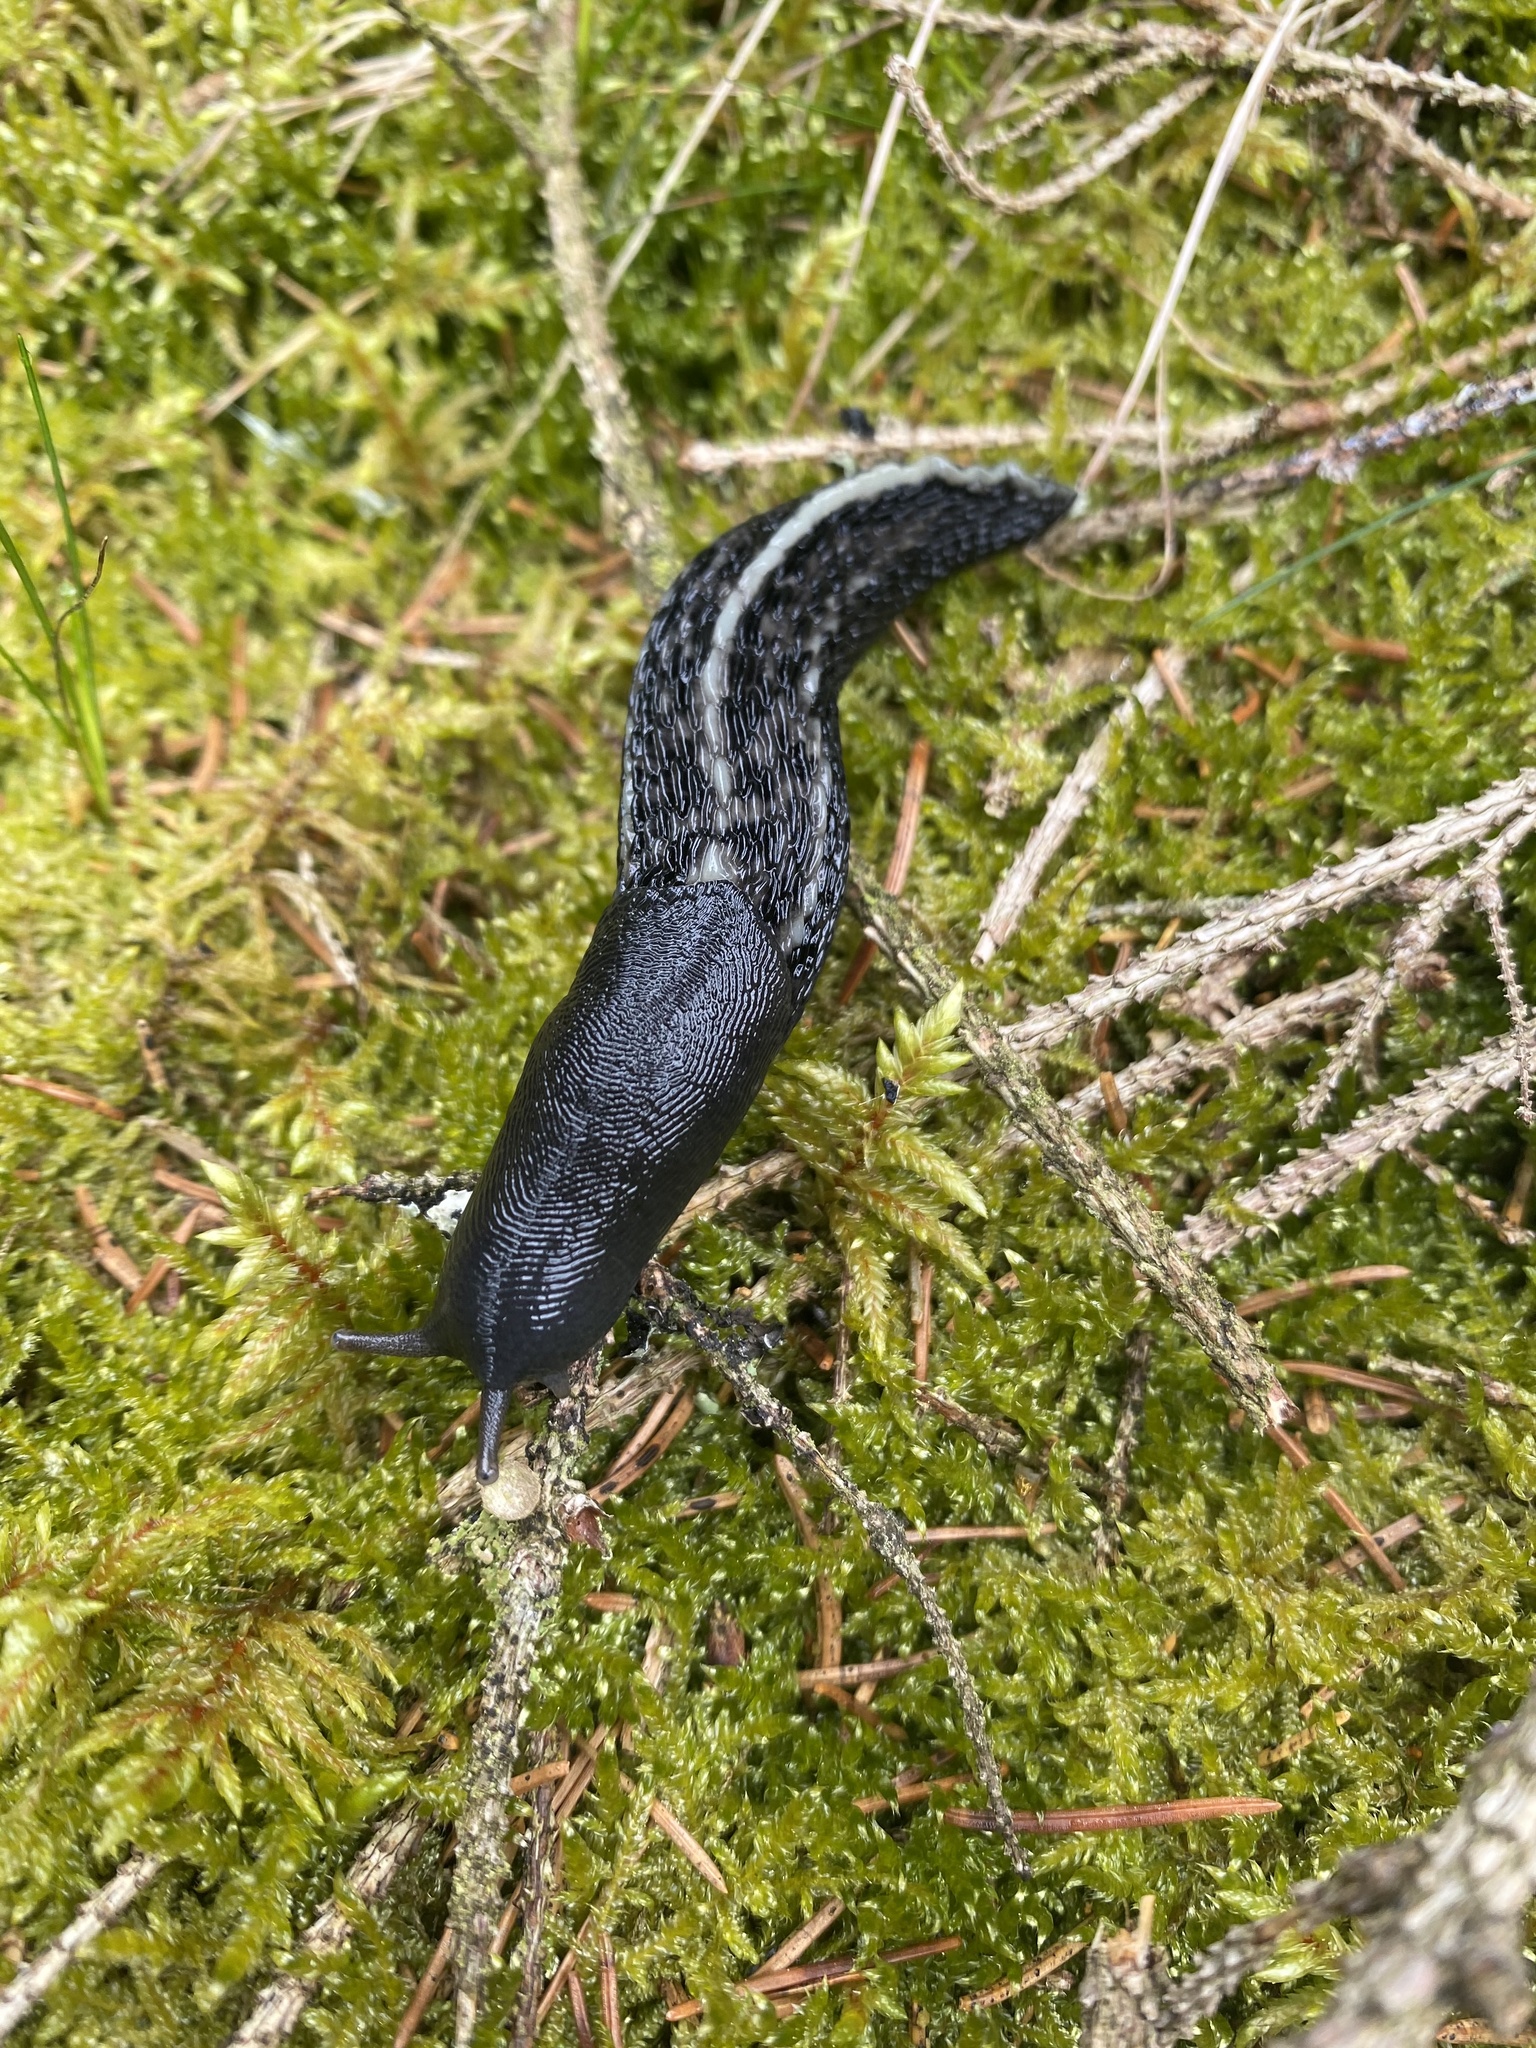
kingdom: Animalia
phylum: Mollusca
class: Gastropoda
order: Stylommatophora
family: Limacidae
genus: Limax
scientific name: Limax cinereoniger
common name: Ash-black slug
